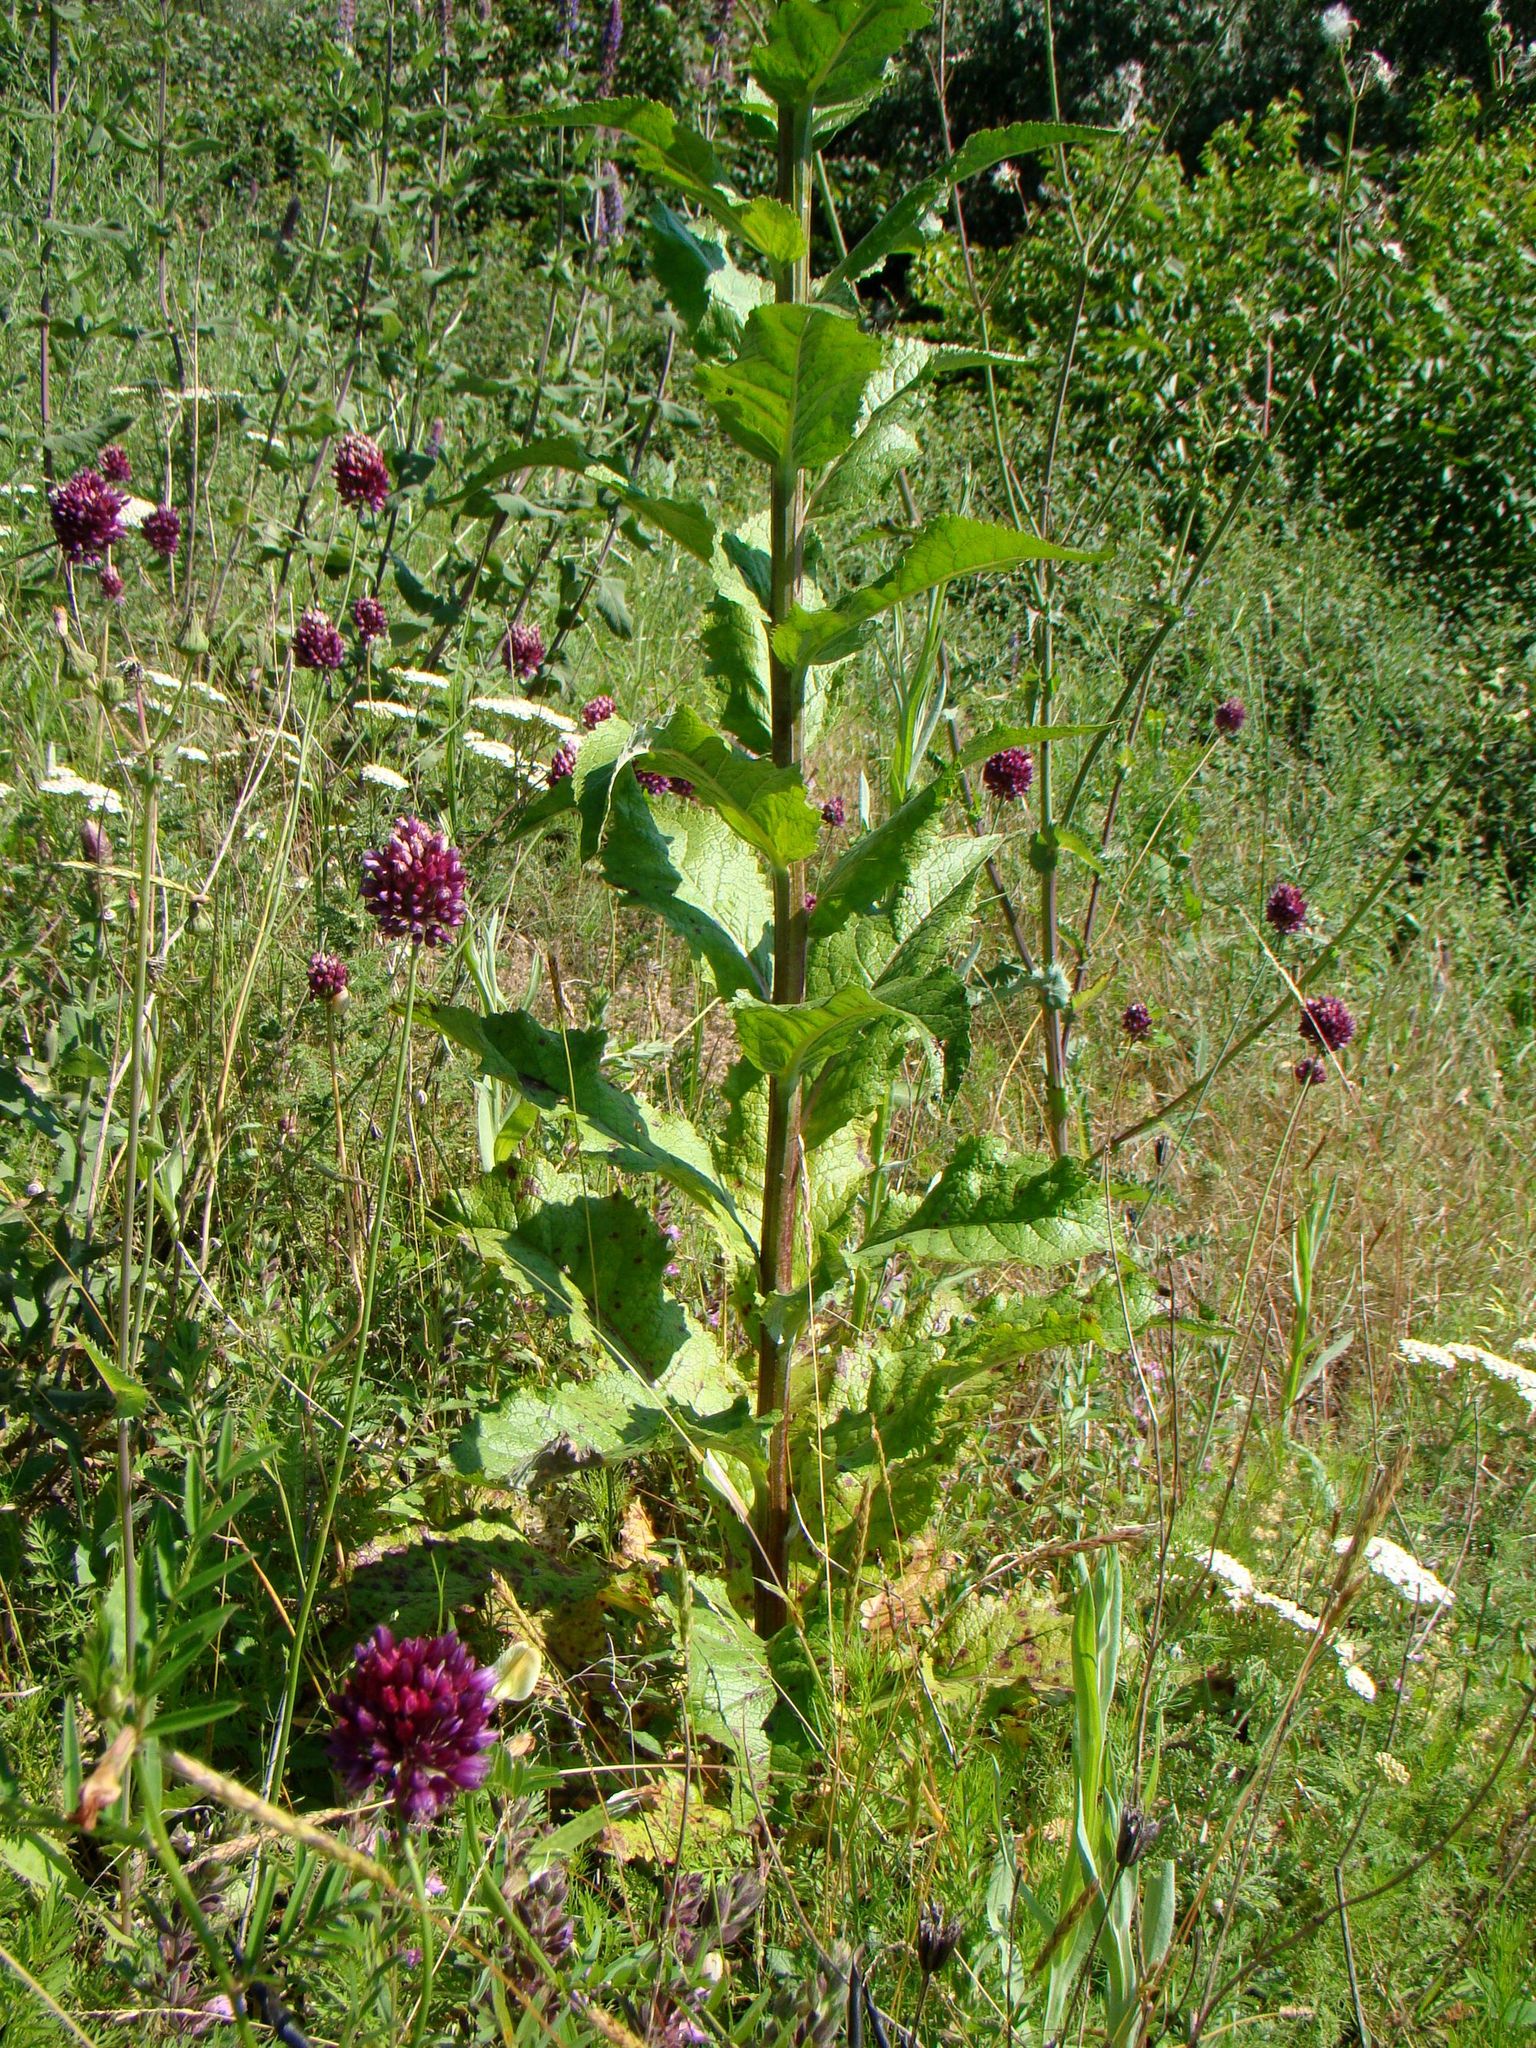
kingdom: Plantae
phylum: Tracheophyta
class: Magnoliopsida
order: Lamiales
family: Scrophulariaceae
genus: Verbascum
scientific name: Verbascum lychnitis
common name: White mullein
